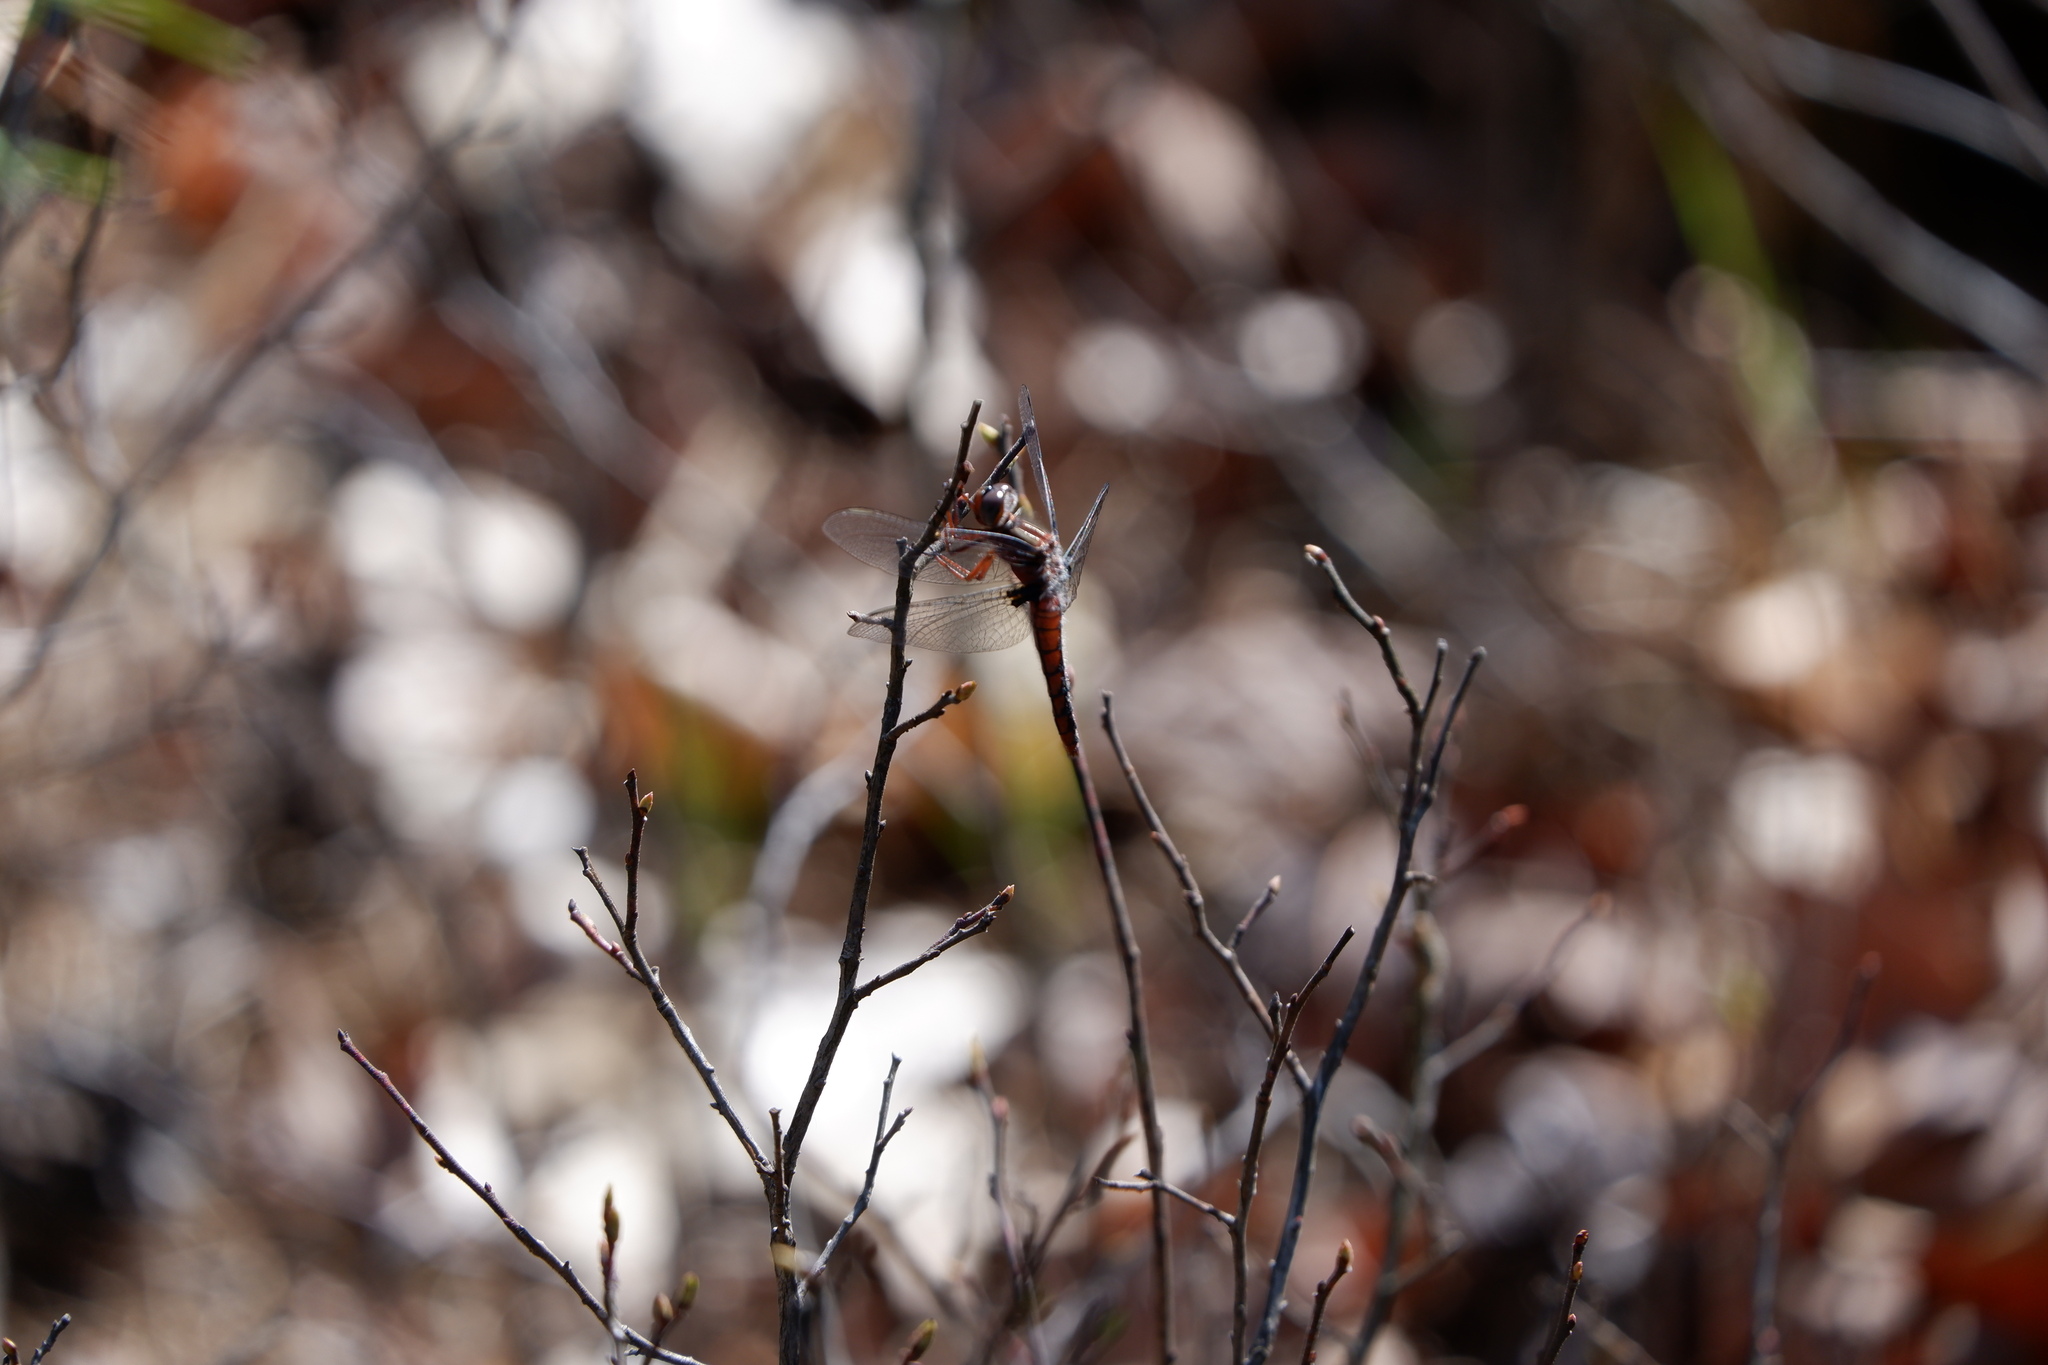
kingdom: Animalia
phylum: Arthropoda
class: Insecta
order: Odonata
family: Libellulidae
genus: Ladona
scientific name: Ladona deplanata
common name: Blue corporal
